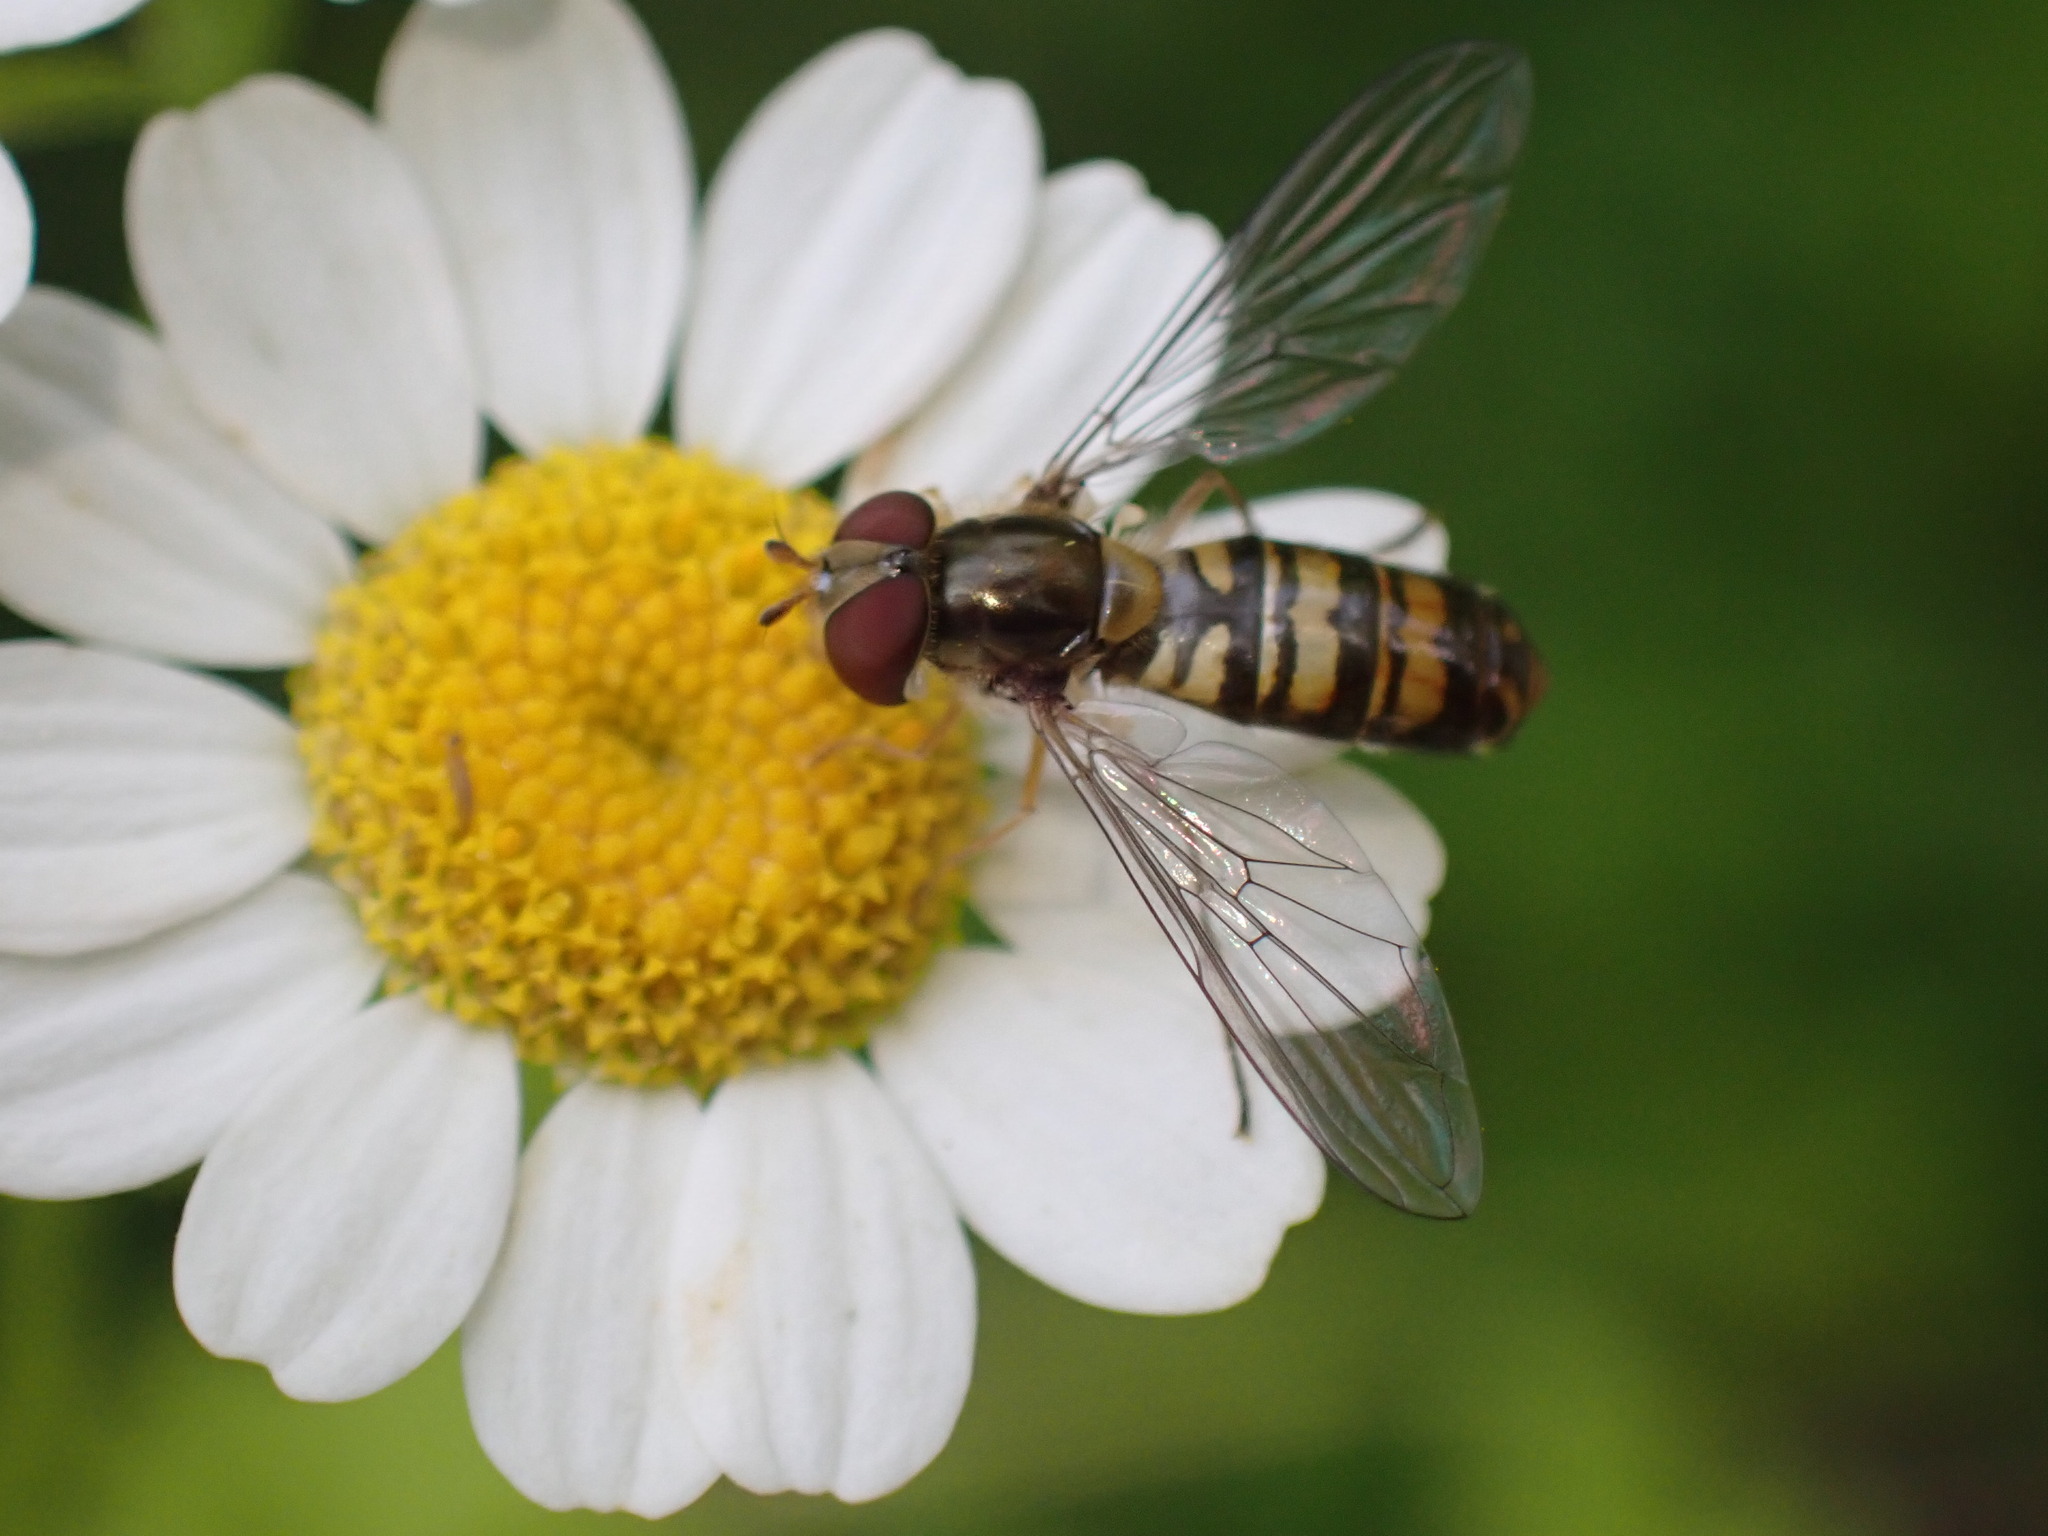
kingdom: Animalia
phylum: Arthropoda
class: Insecta
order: Diptera
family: Syrphidae
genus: Episyrphus
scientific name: Episyrphus balteatus
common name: Marmalade hoverfly
